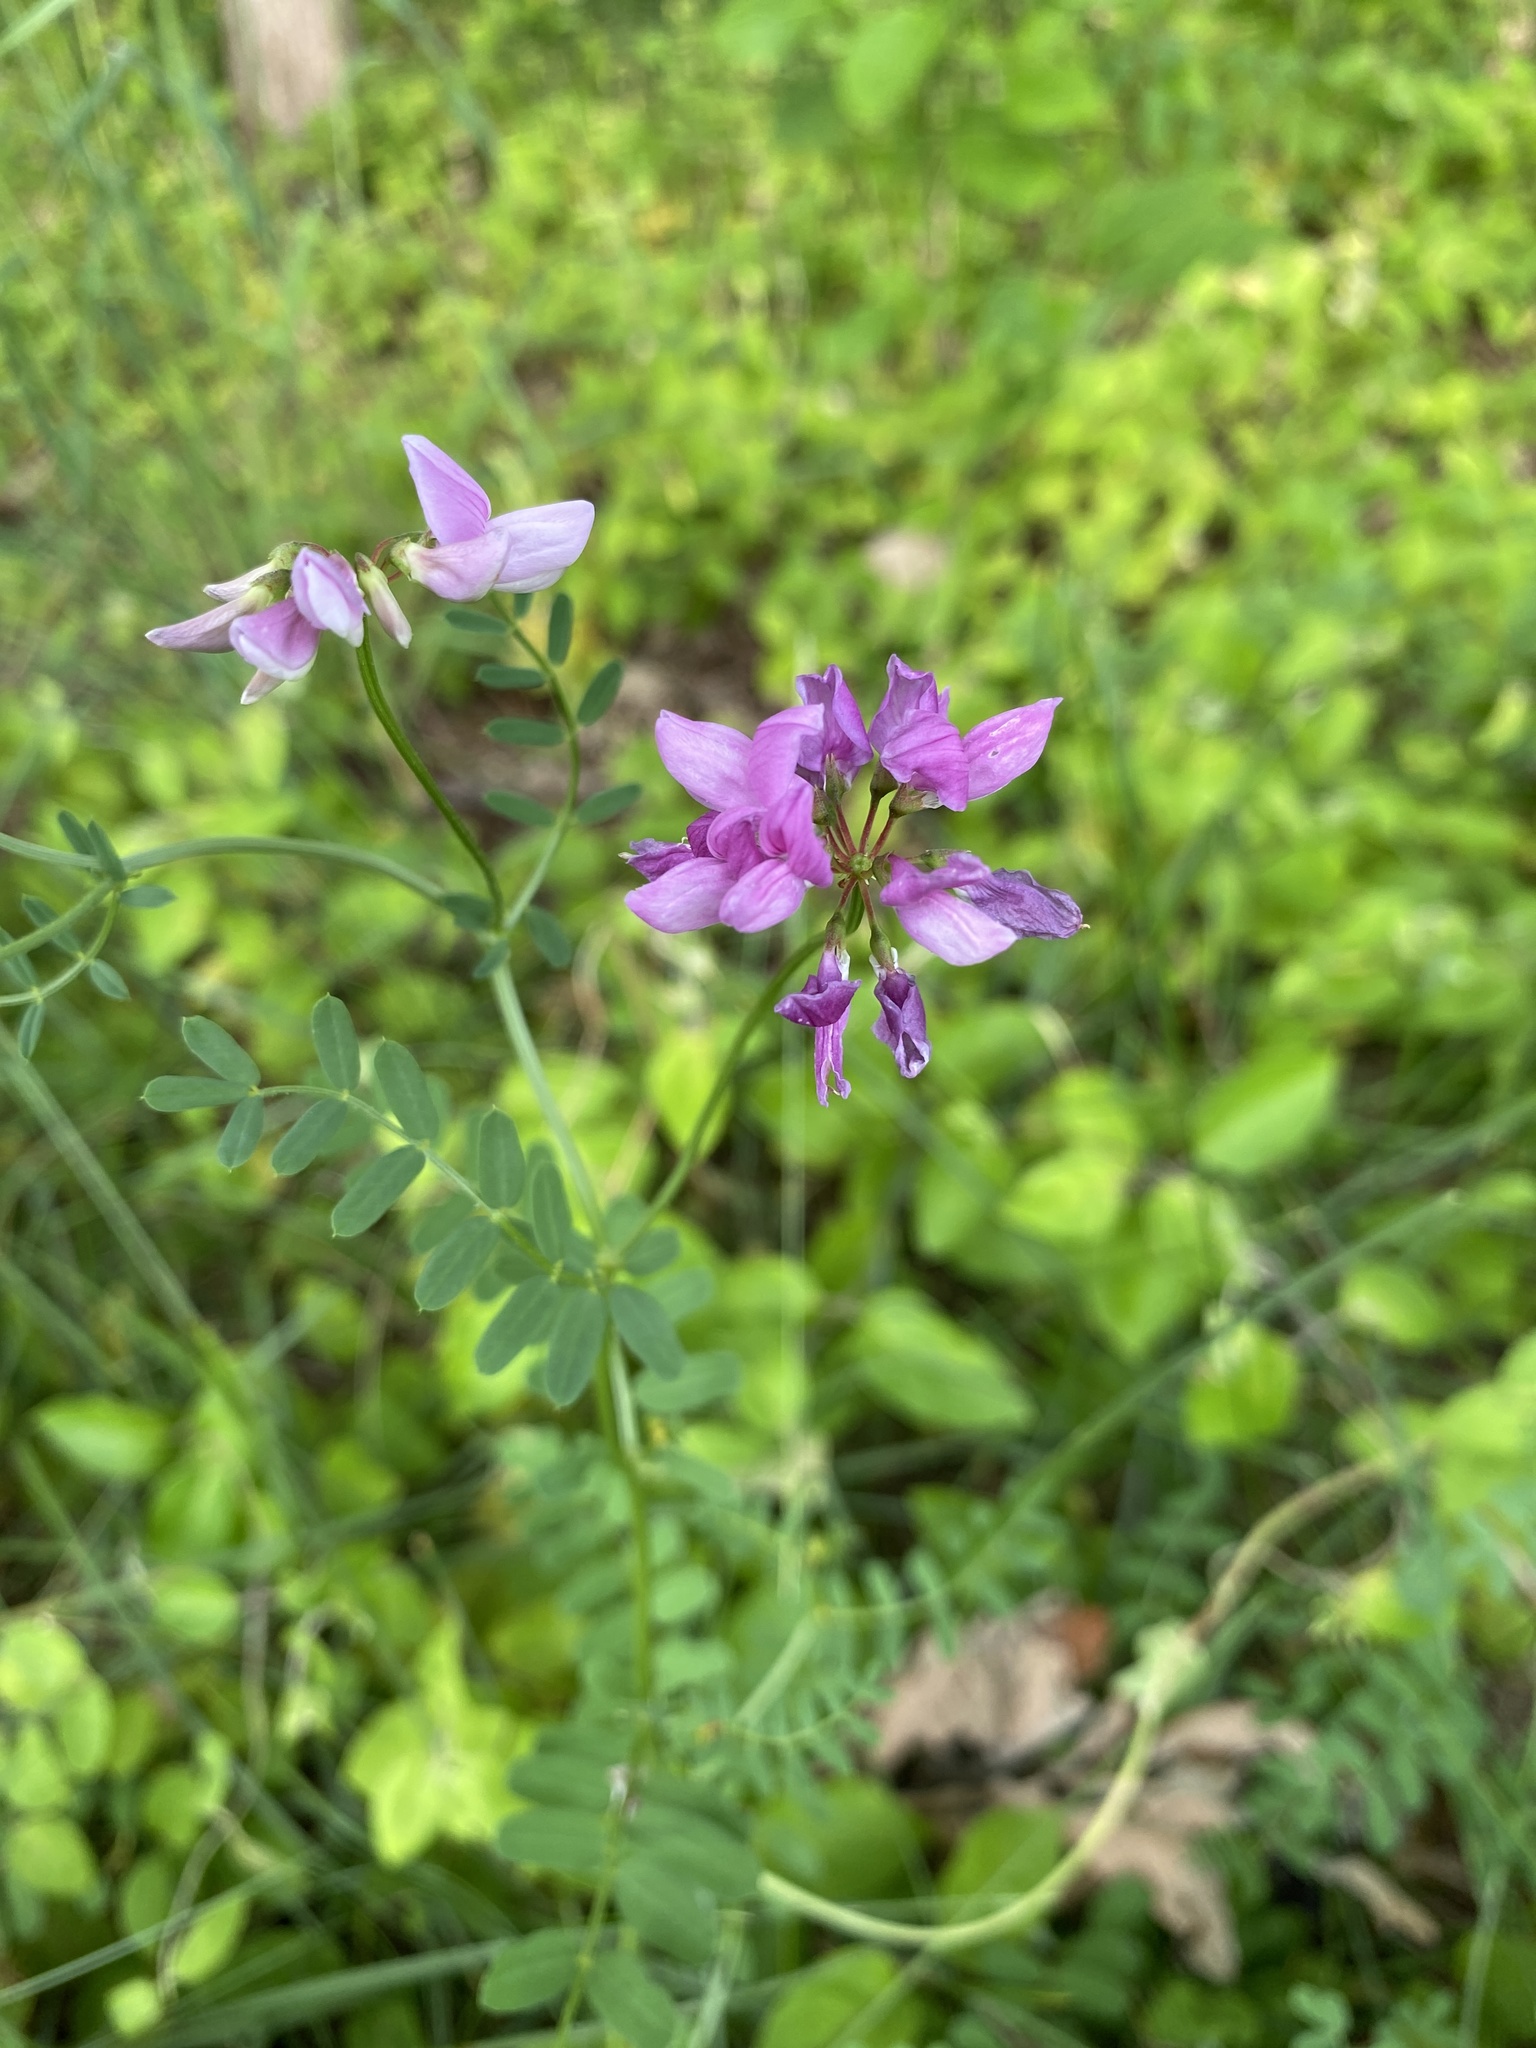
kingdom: Plantae
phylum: Tracheophyta
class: Magnoliopsida
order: Fabales
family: Fabaceae
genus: Coronilla
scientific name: Coronilla varia
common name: Crownvetch
